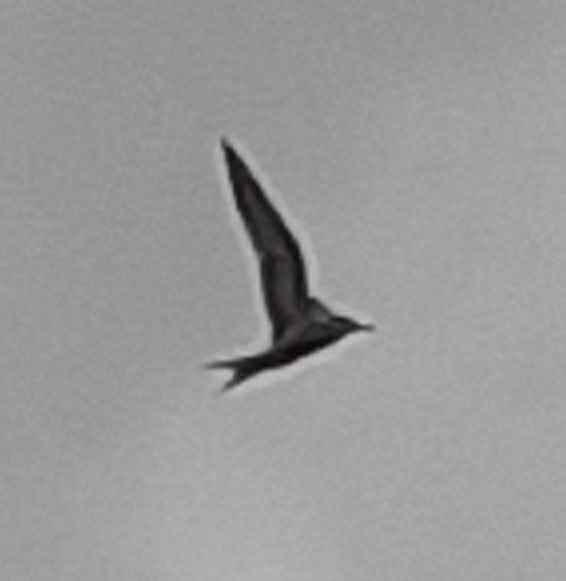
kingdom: Animalia
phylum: Chordata
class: Aves
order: Charadriiformes
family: Laridae
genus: Sterna
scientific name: Sterna hirundo
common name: Common tern
